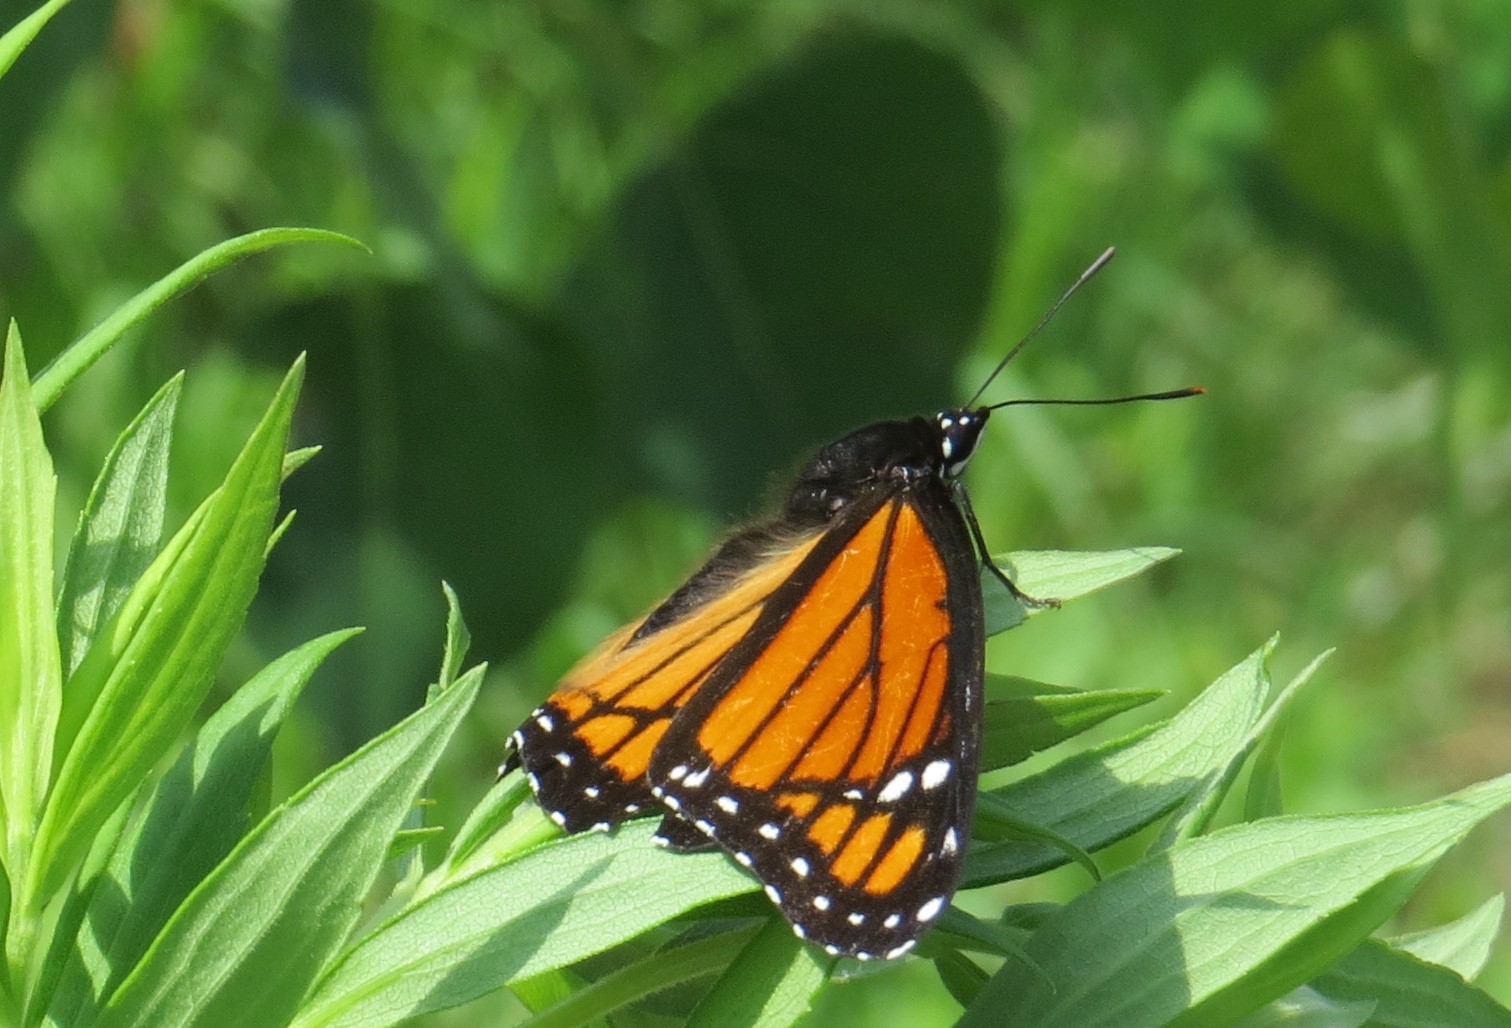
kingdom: Animalia
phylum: Arthropoda
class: Insecta
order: Lepidoptera
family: Nymphalidae
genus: Limenitis
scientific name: Limenitis archippus
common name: Viceroy
